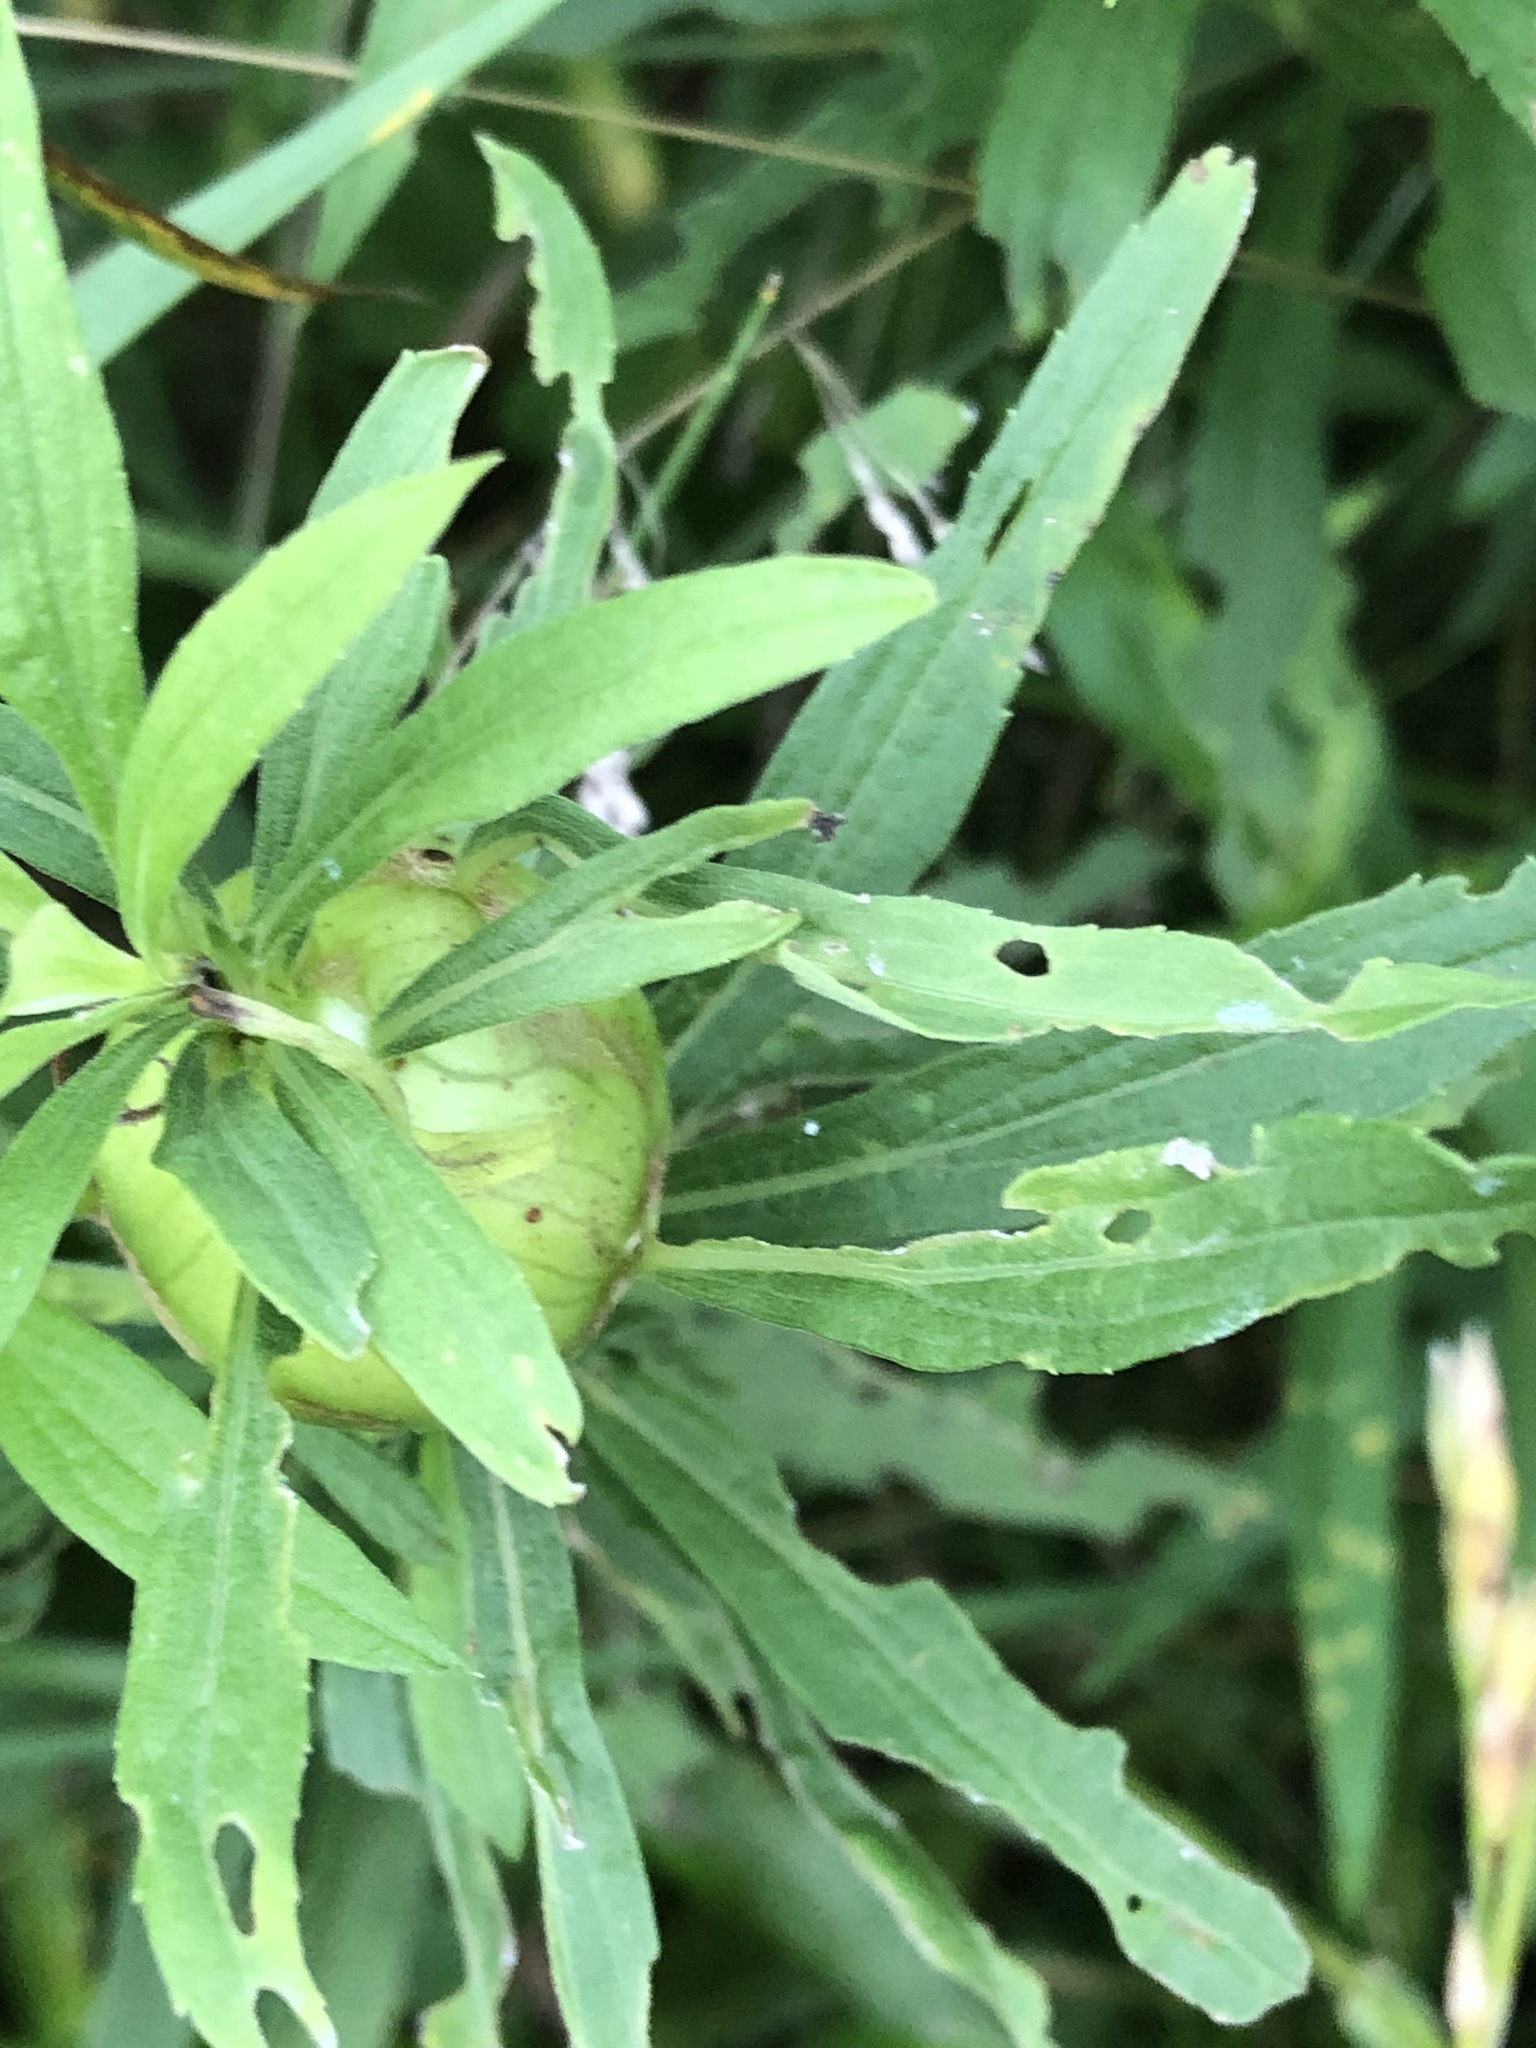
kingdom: Animalia
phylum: Arthropoda
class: Insecta
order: Diptera
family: Tephritidae
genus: Eurosta
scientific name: Eurosta solidaginis
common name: Goldenrod gall fly
